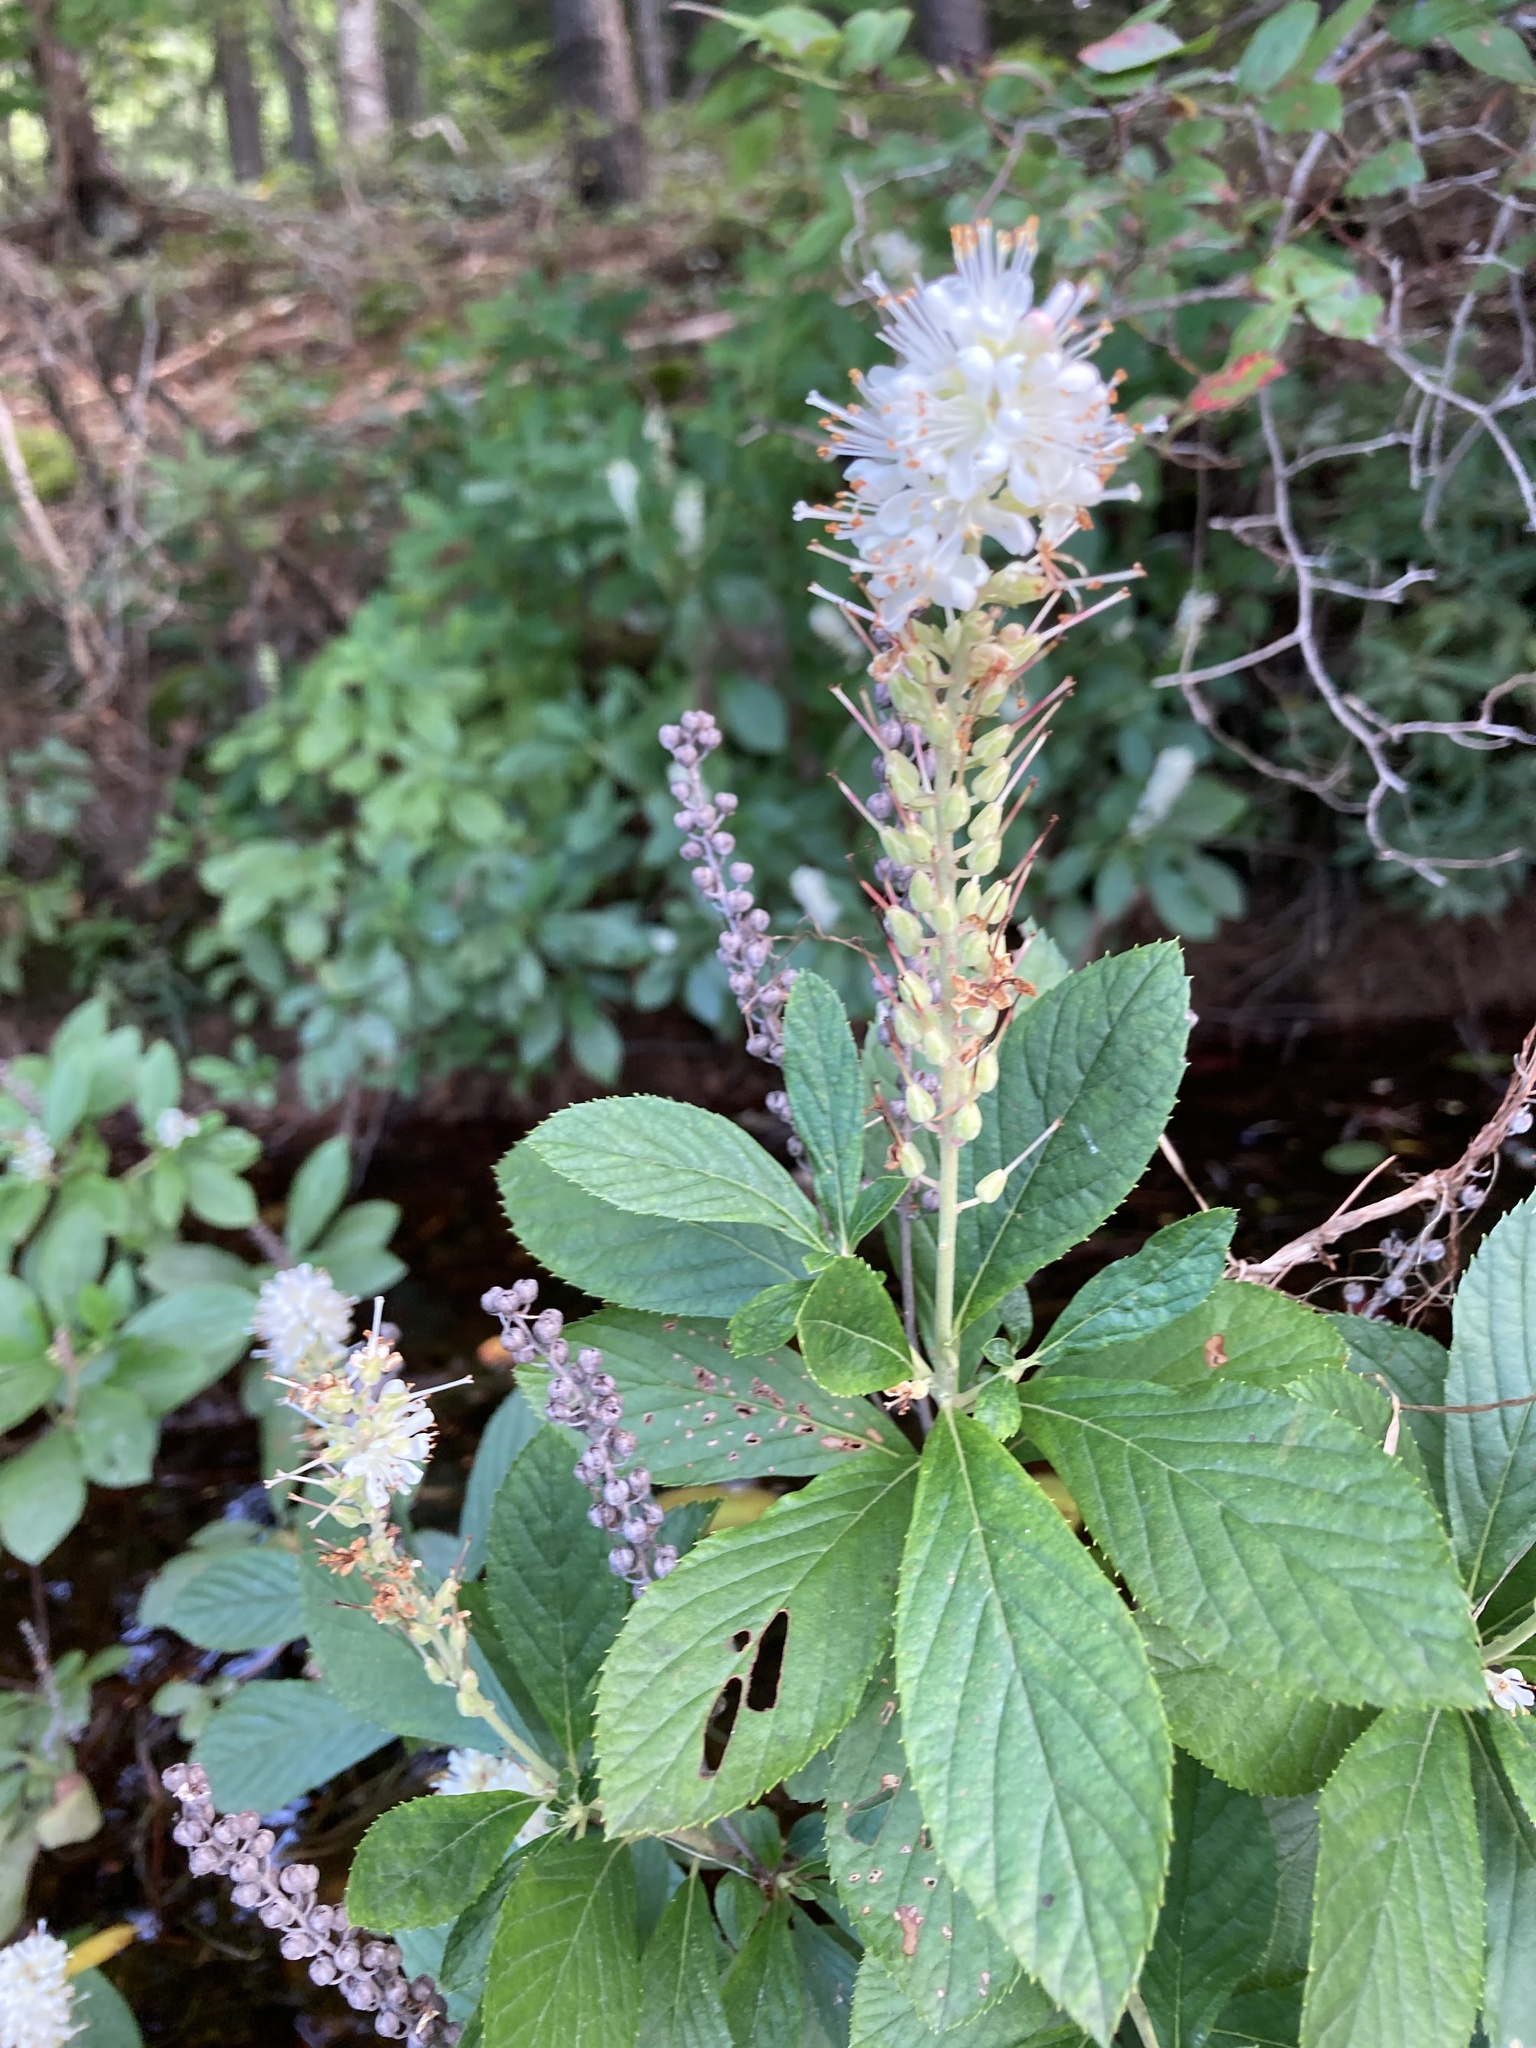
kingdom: Plantae
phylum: Tracheophyta
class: Magnoliopsida
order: Ericales
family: Clethraceae
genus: Clethra
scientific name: Clethra alnifolia
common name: Sweet pepperbush
